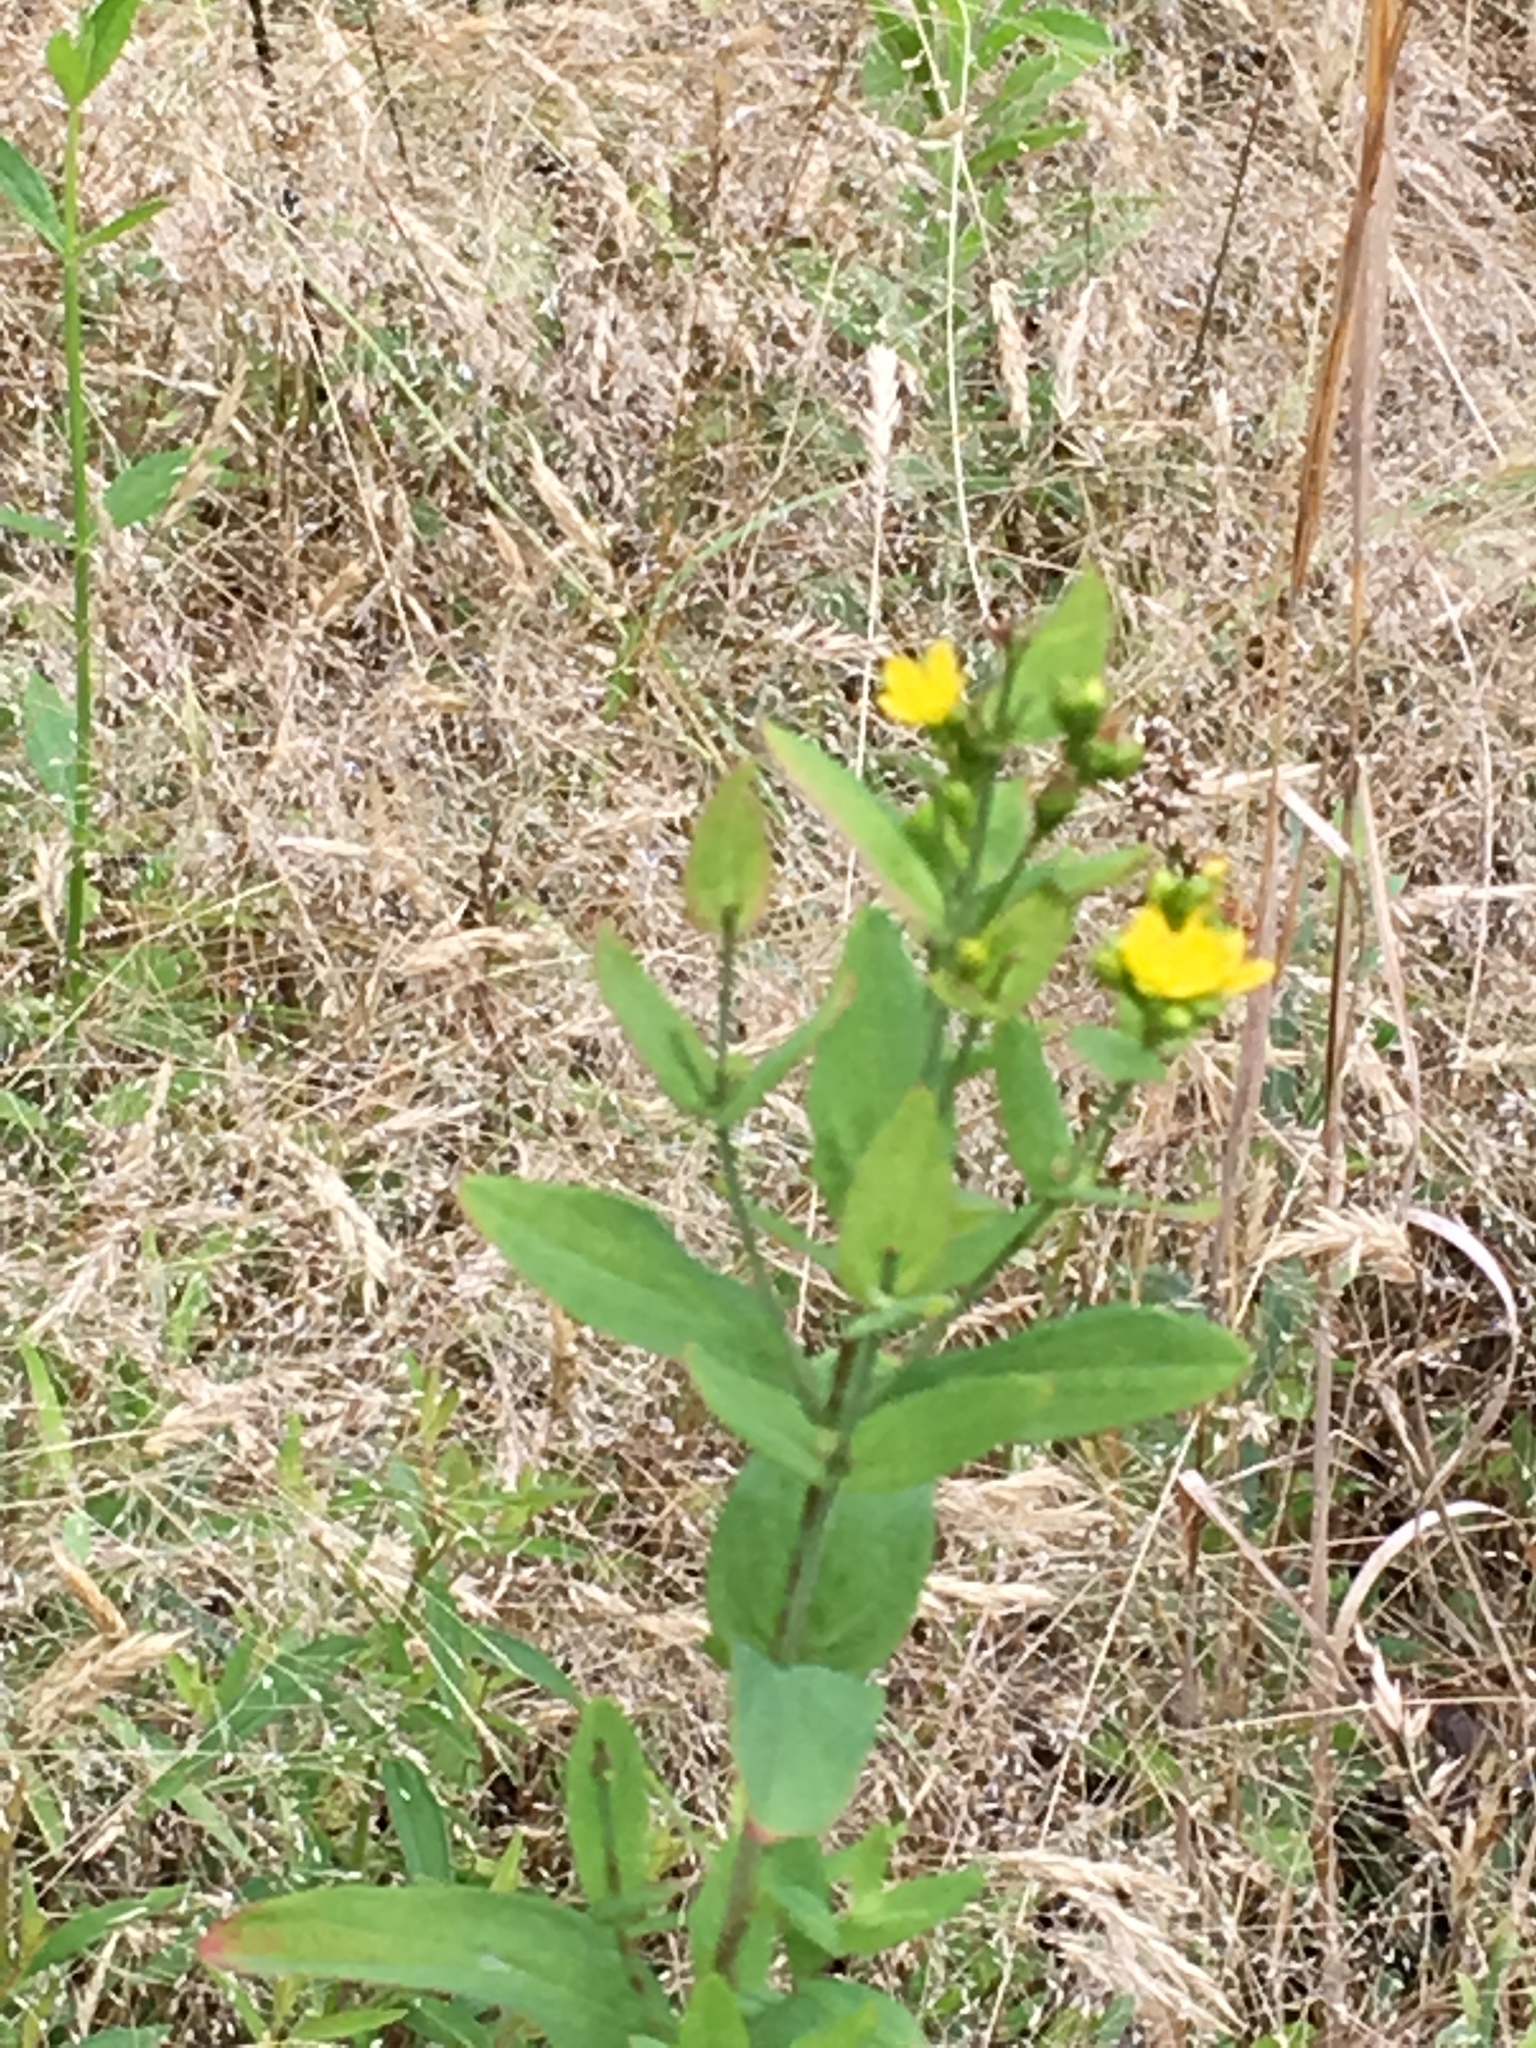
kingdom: Plantae
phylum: Tracheophyta
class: Magnoliopsida
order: Malpighiales
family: Hypericaceae
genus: Hypericum
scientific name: Hypericum punctatum
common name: Spotted st. john's-wort
